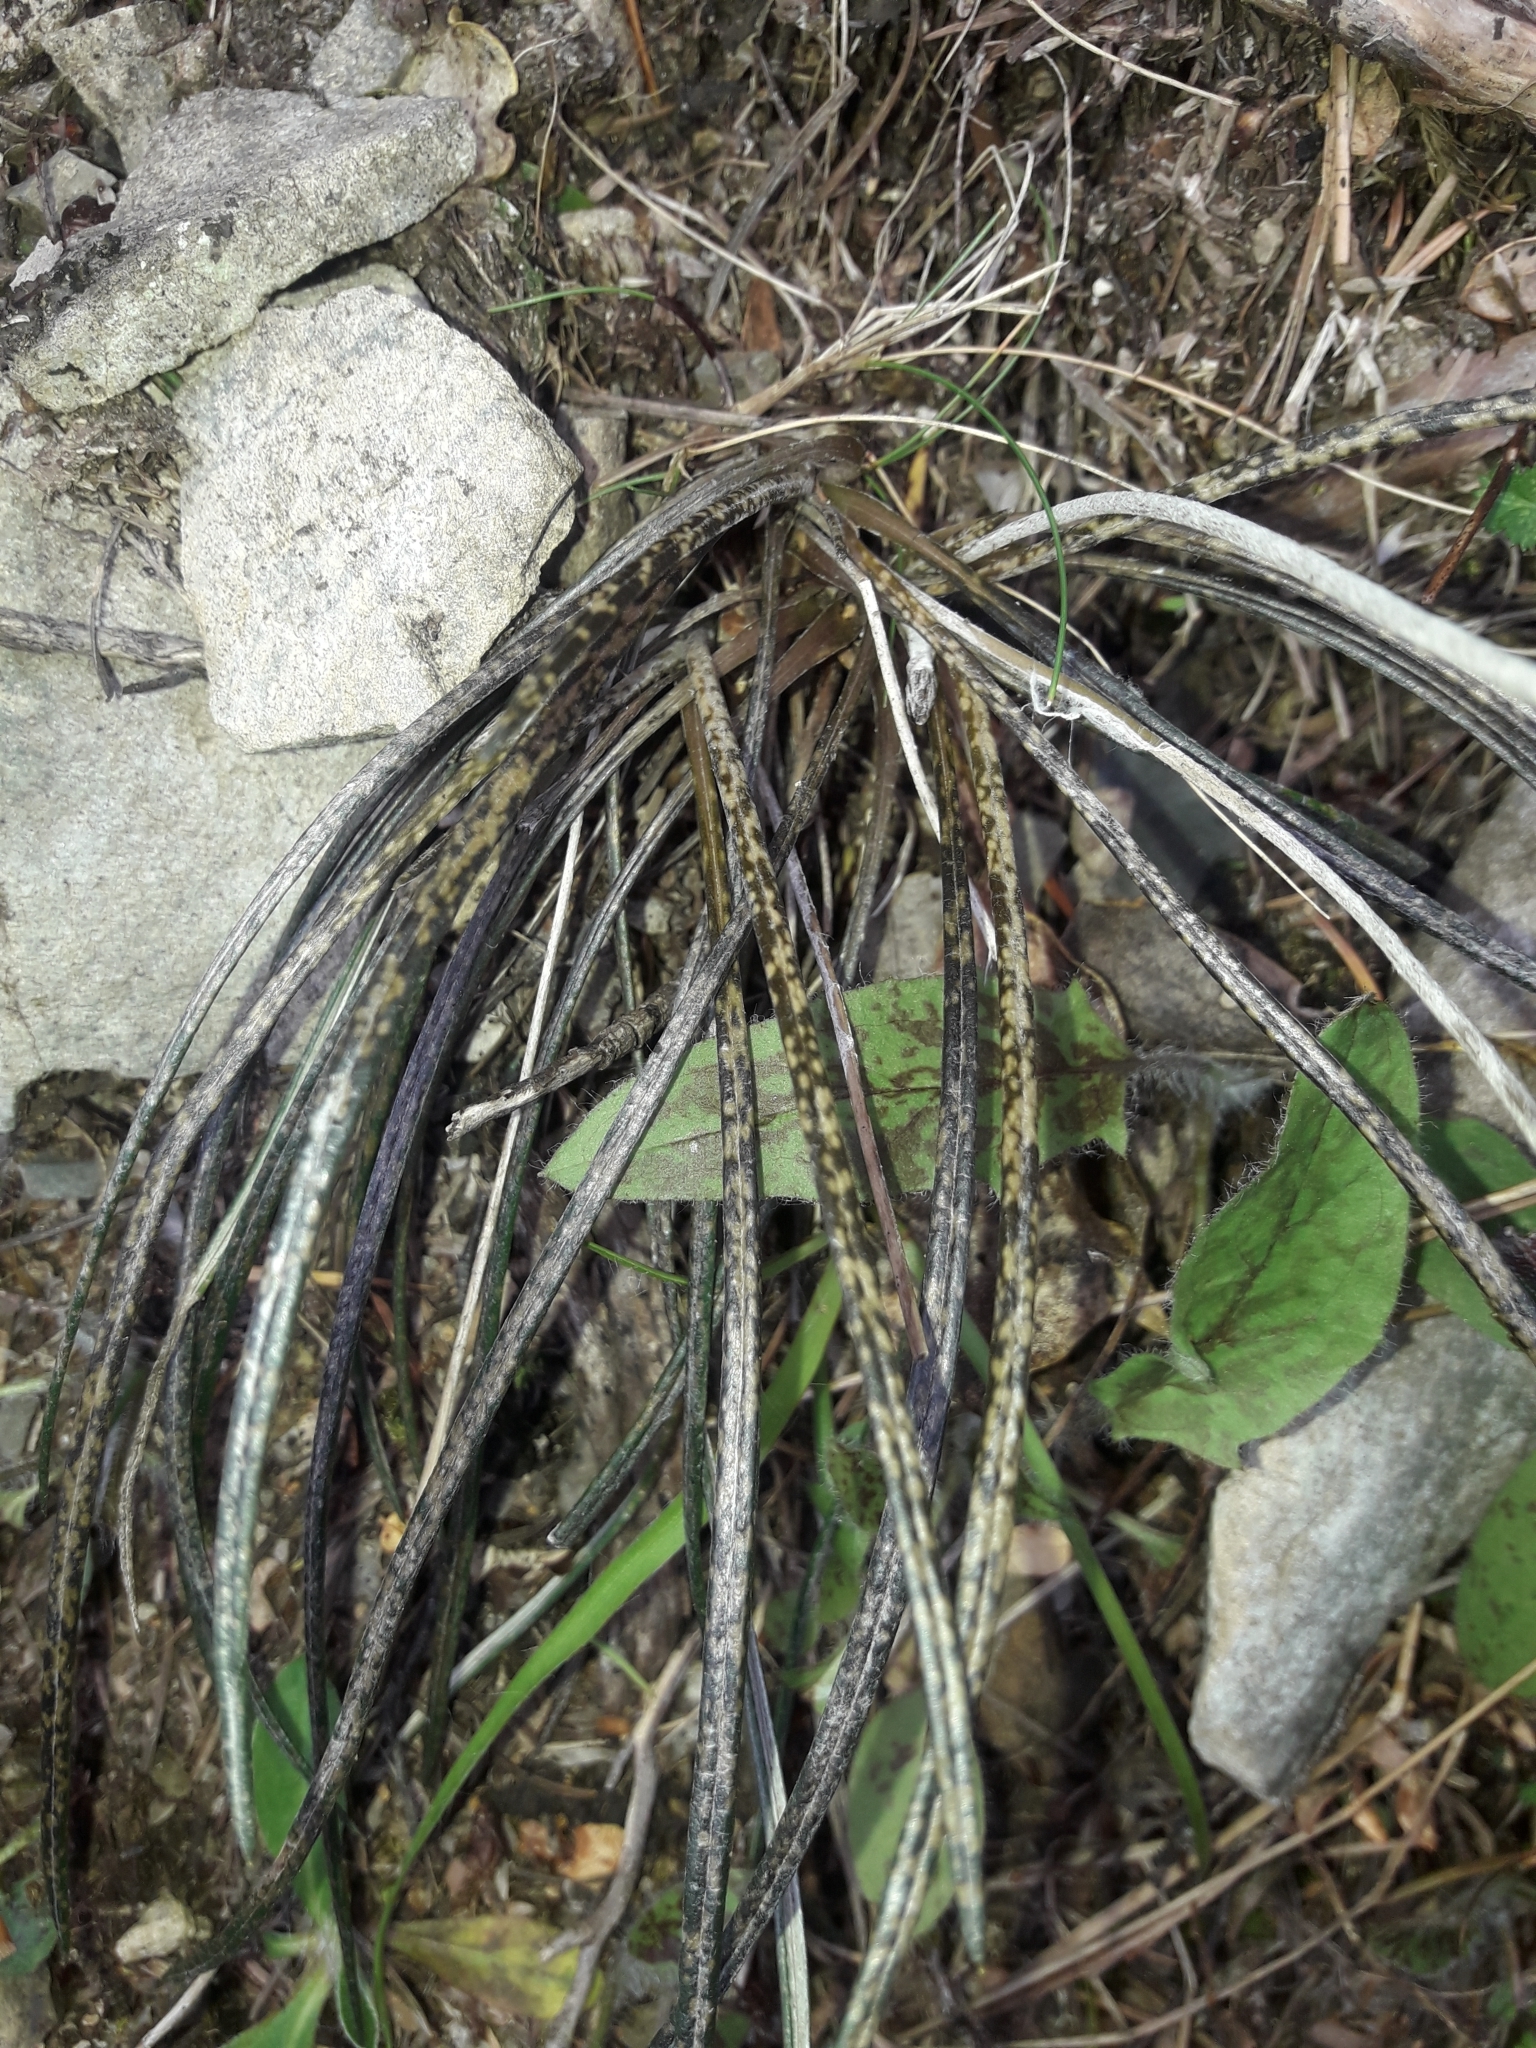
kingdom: Plantae
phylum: Tracheophyta
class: Magnoliopsida
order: Asterales
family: Asteraceae
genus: Celmisia
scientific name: Celmisia gracilenta
